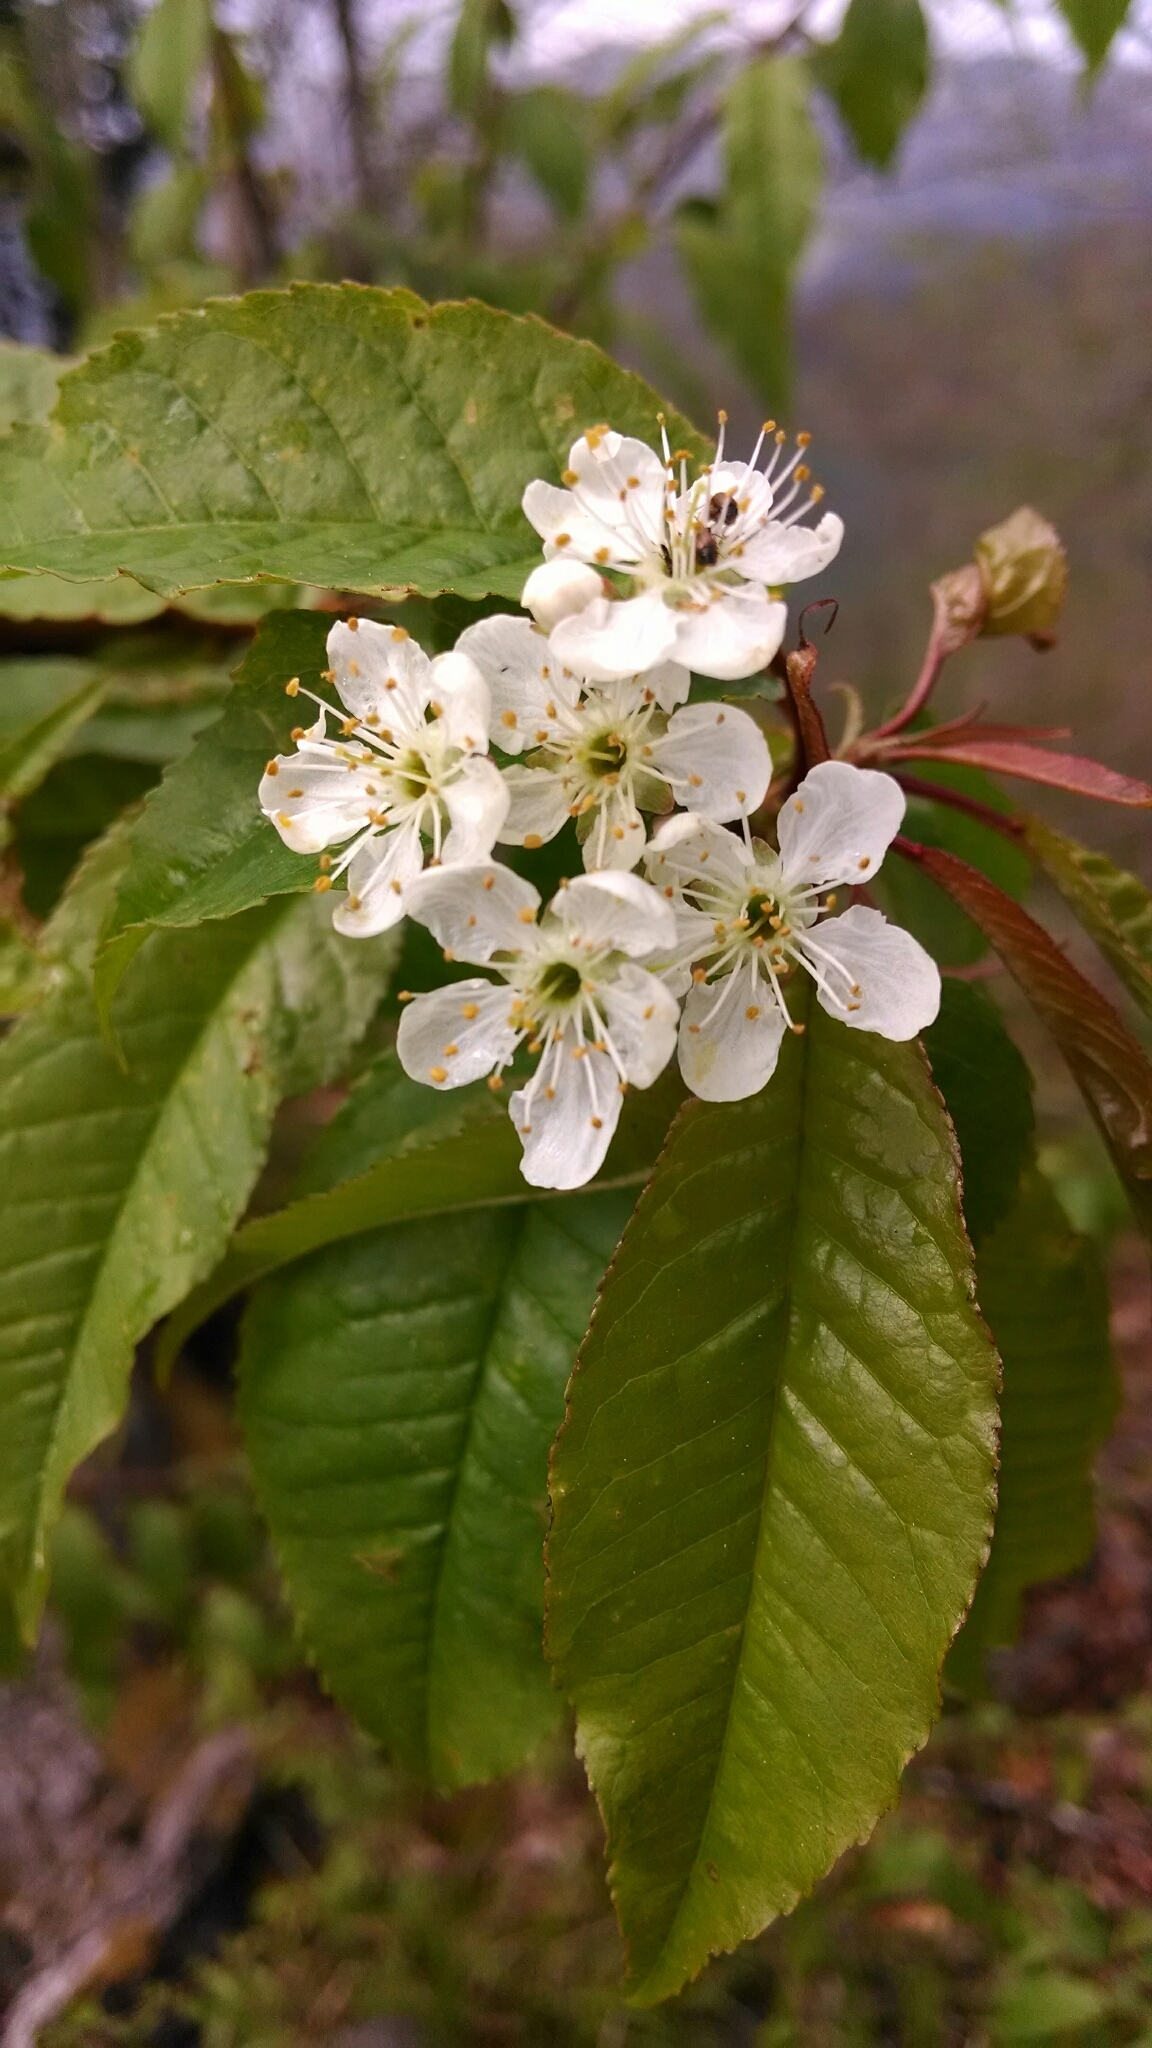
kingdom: Plantae
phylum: Tracheophyta
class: Magnoliopsida
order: Rosales
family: Rosaceae
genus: Prunus
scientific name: Prunus pensylvanica
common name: Pin cherry
